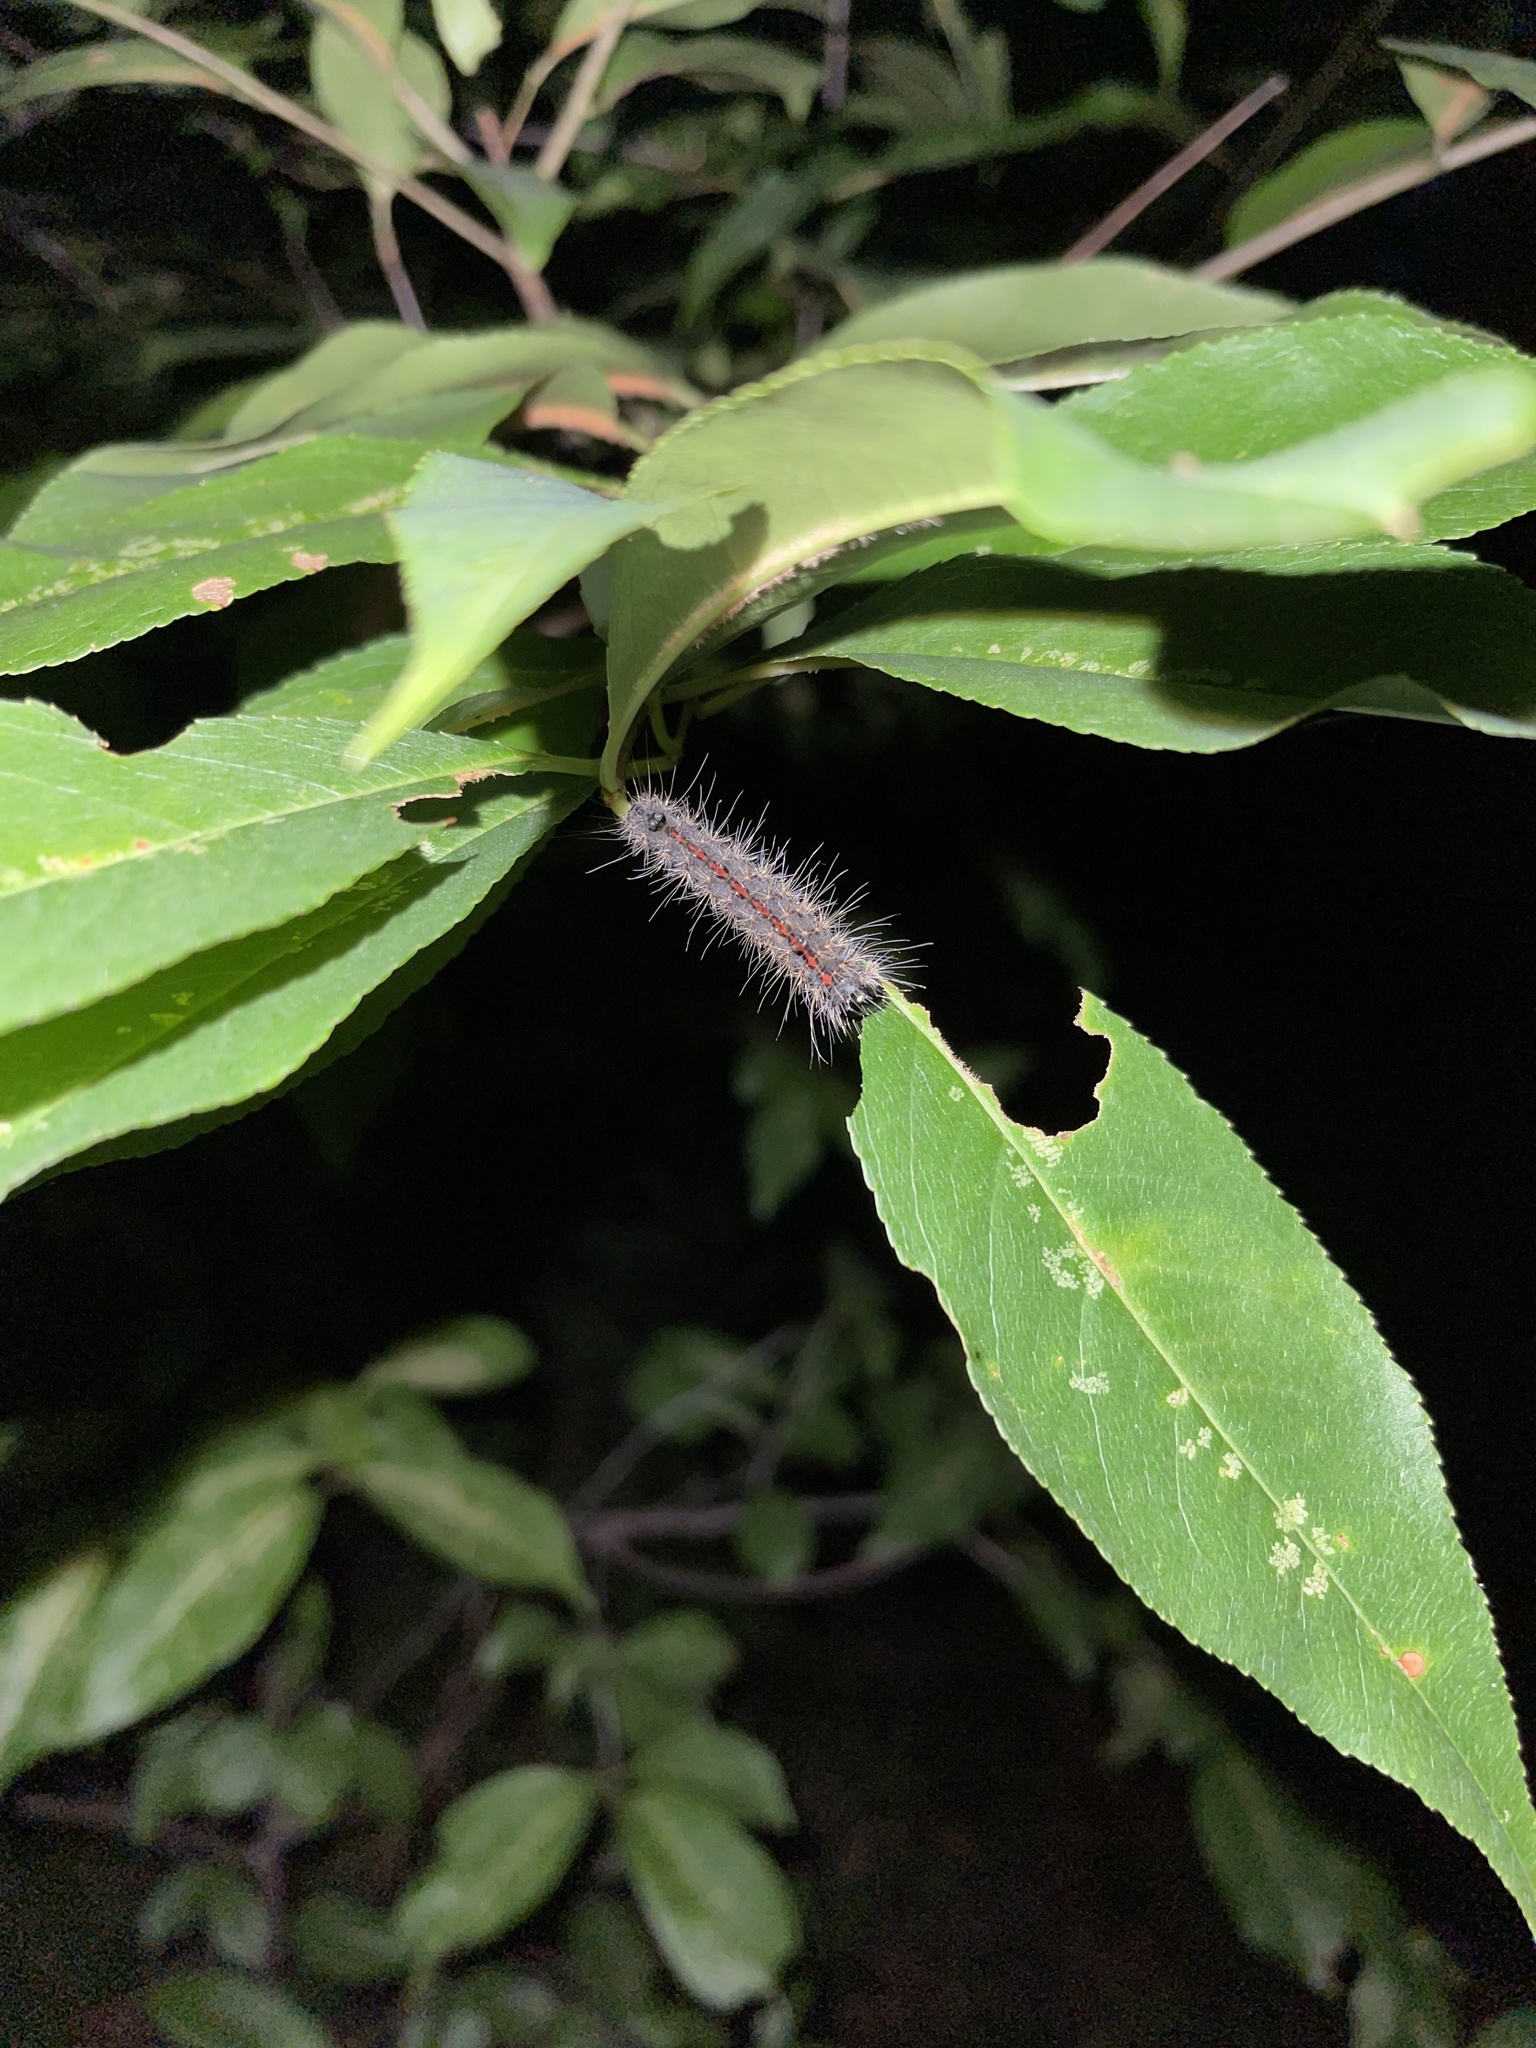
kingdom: Animalia
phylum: Arthropoda
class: Insecta
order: Lepidoptera
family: Noctuidae
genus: Acronicta
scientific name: Acronicta hasta
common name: Cherry dagger
